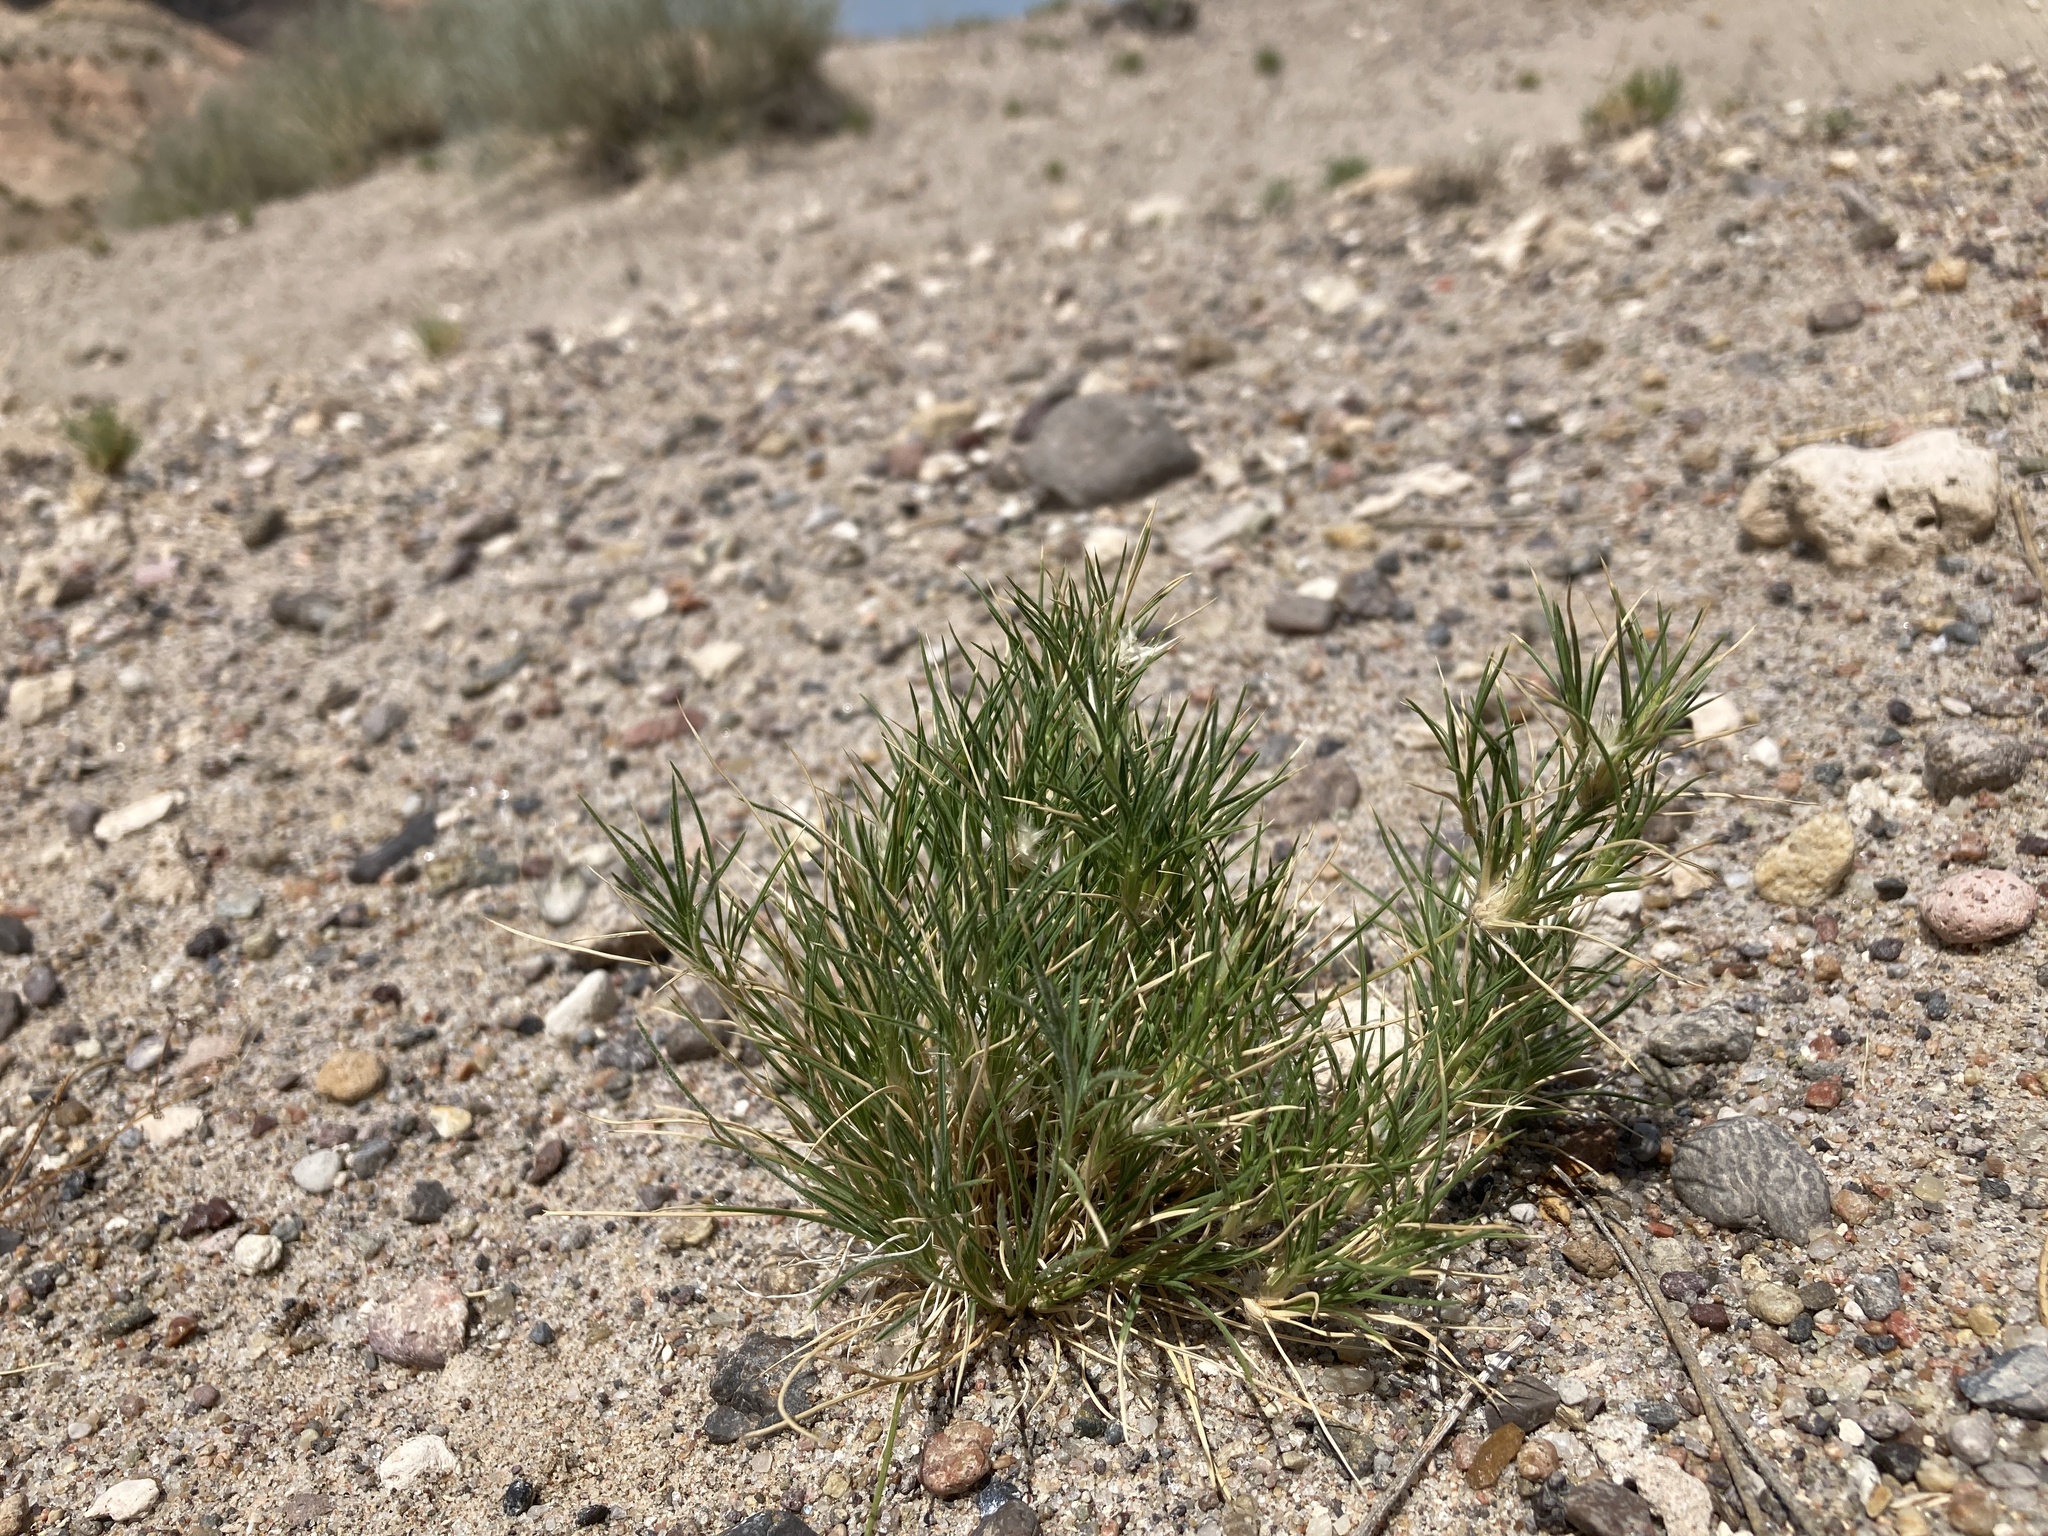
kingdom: Plantae
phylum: Tracheophyta
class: Liliopsida
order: Poales
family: Poaceae
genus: Dasyochloa
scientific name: Dasyochloa pulchella
